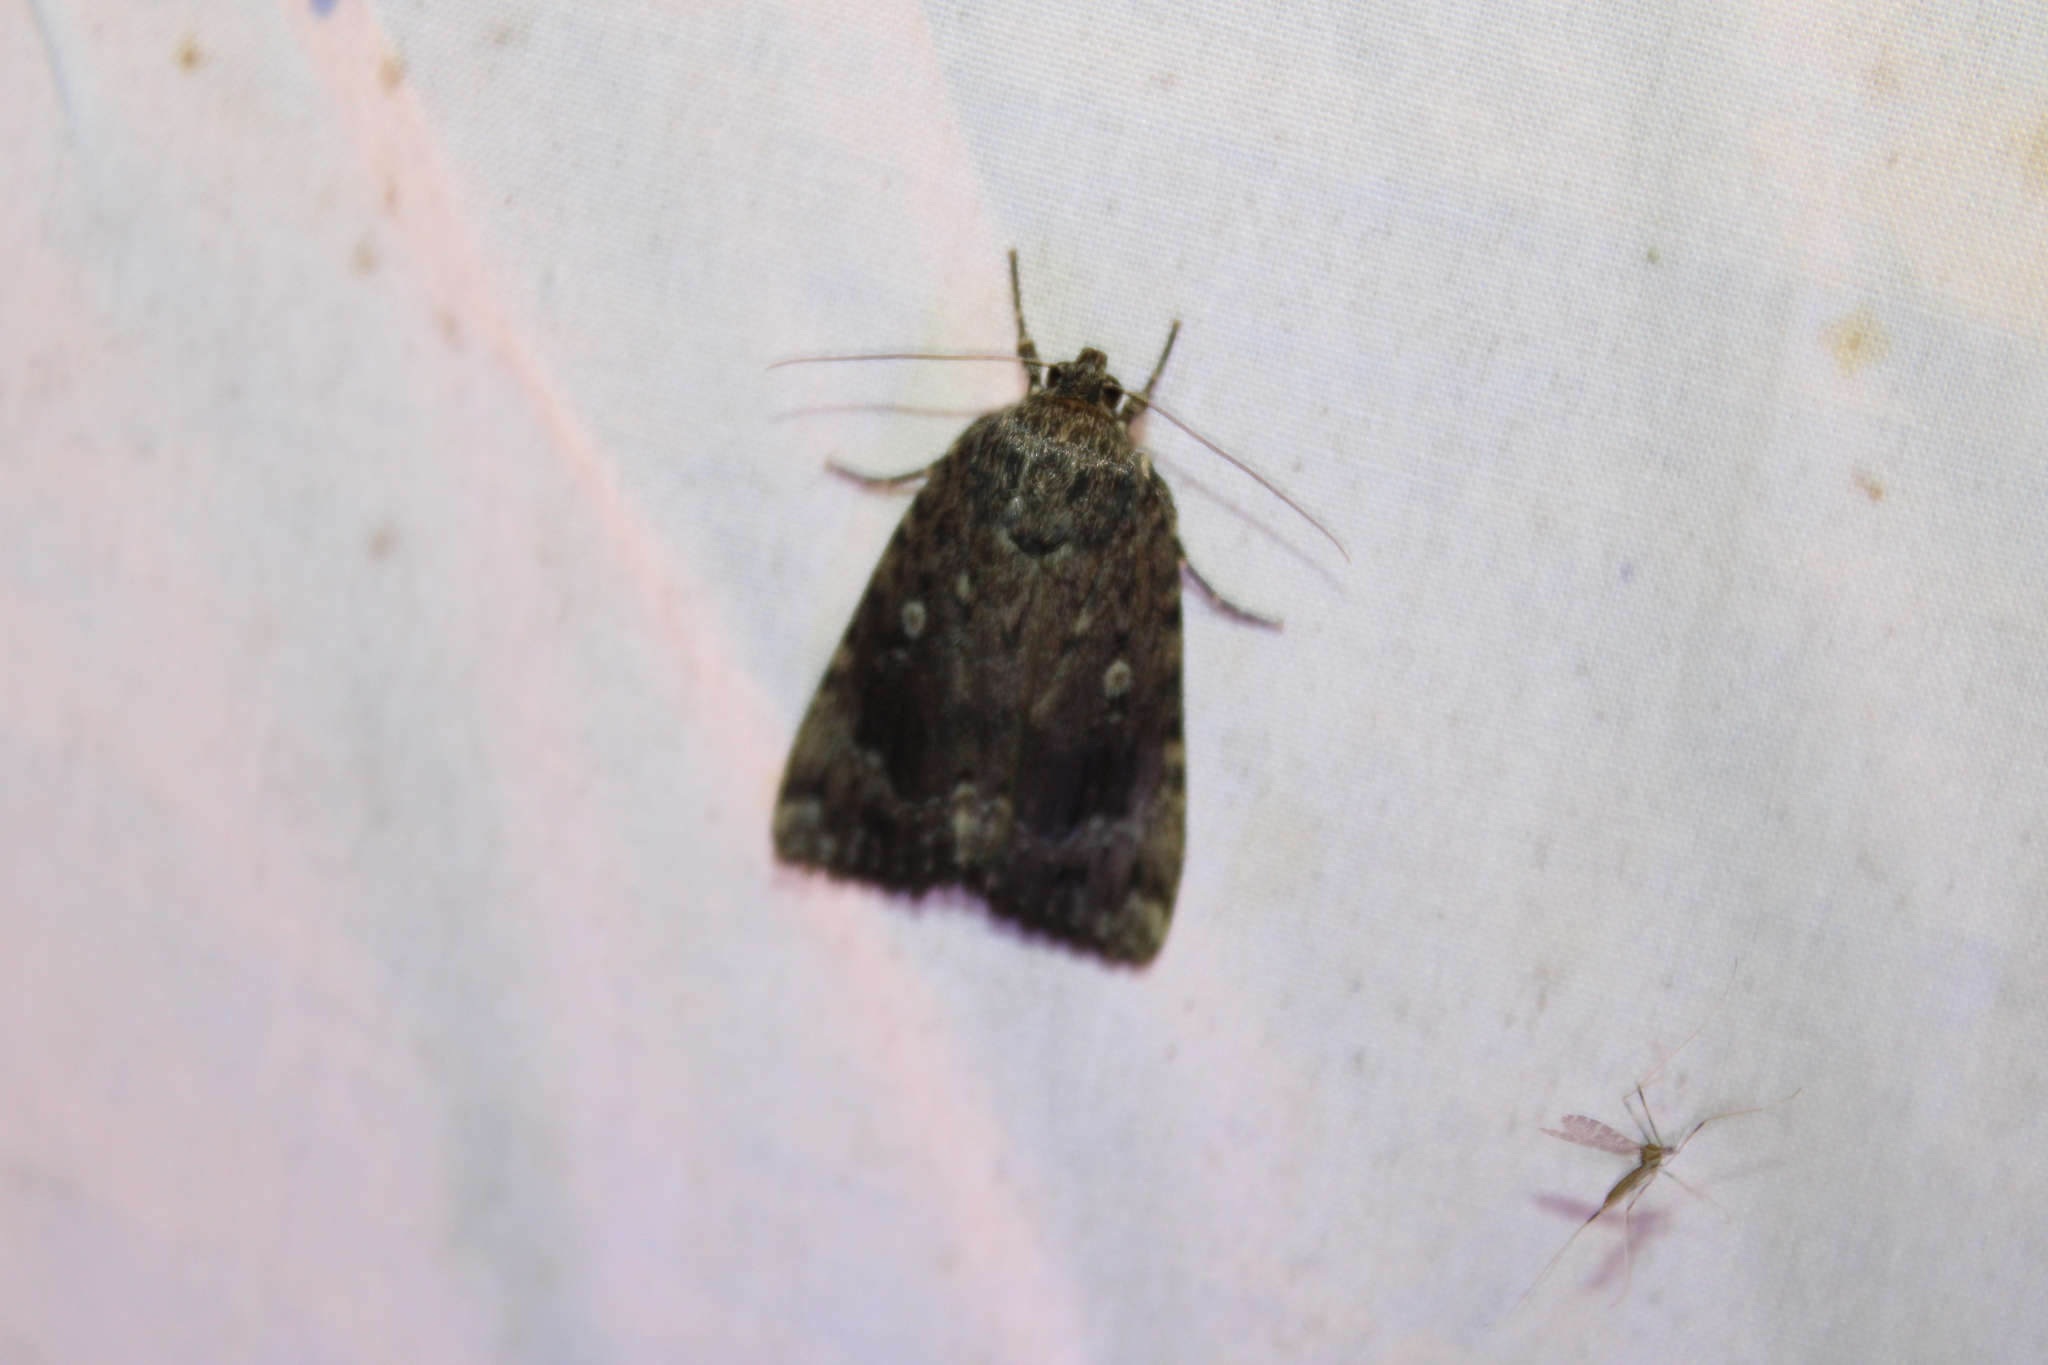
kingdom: Animalia
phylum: Arthropoda
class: Insecta
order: Lepidoptera
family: Noctuidae
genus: Amphipyra
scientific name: Amphipyra pyramidoides
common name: American copper underwing
